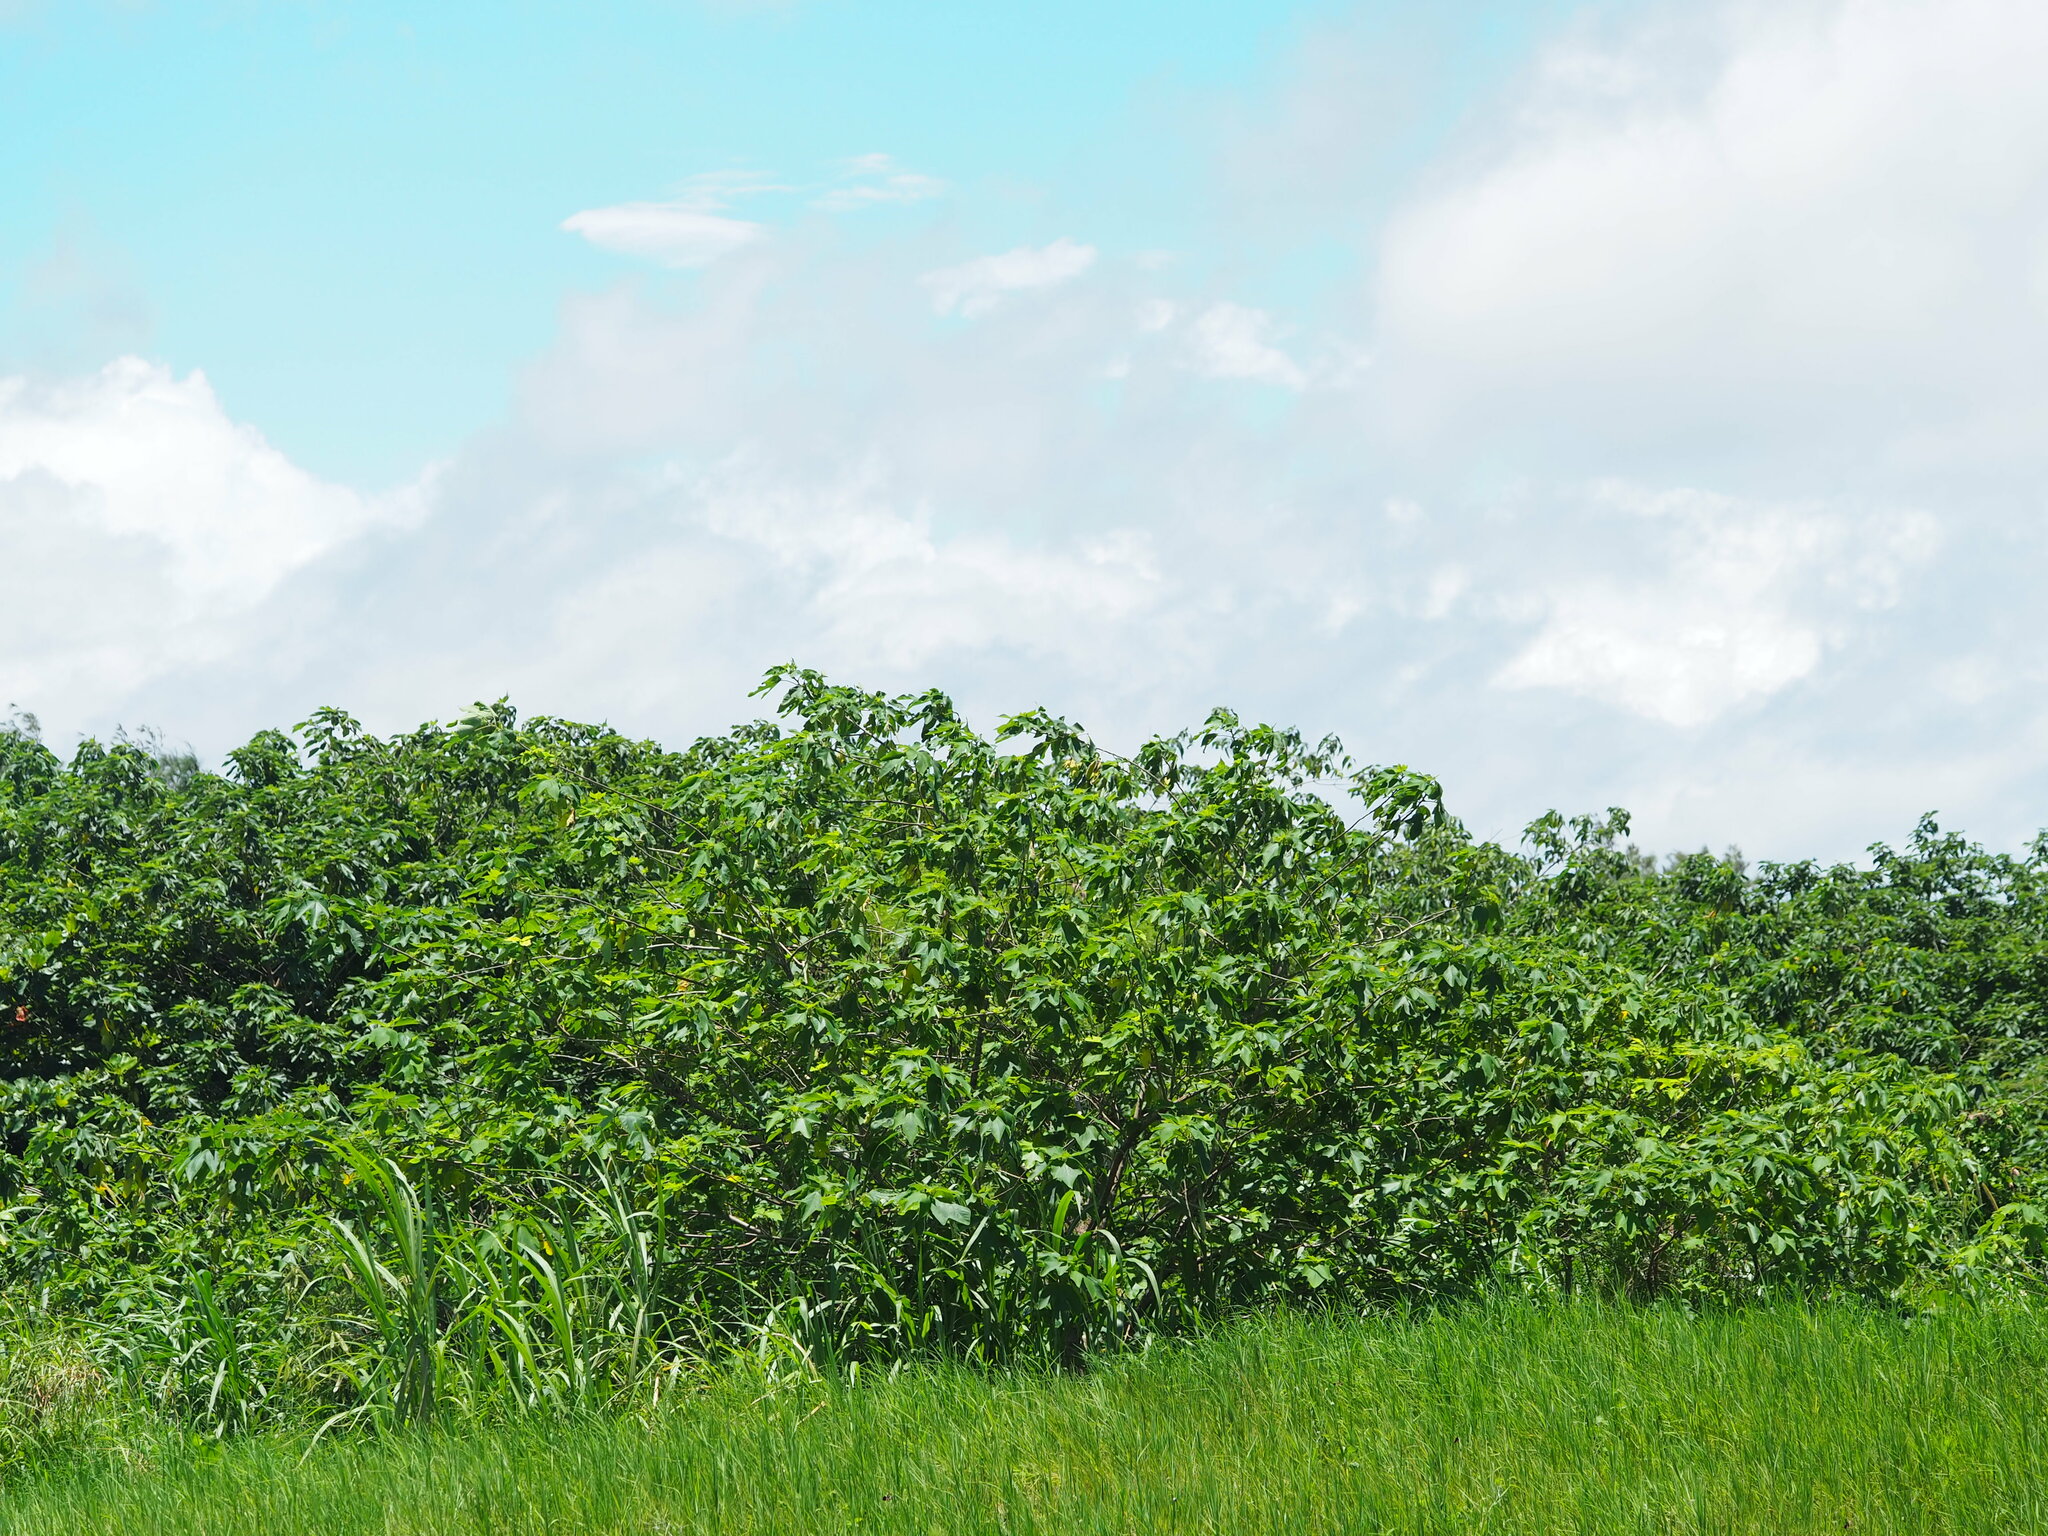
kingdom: Plantae
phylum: Tracheophyta
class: Magnoliopsida
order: Rosales
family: Moraceae
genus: Broussonetia
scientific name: Broussonetia papyrifera
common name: Paper mulberry
